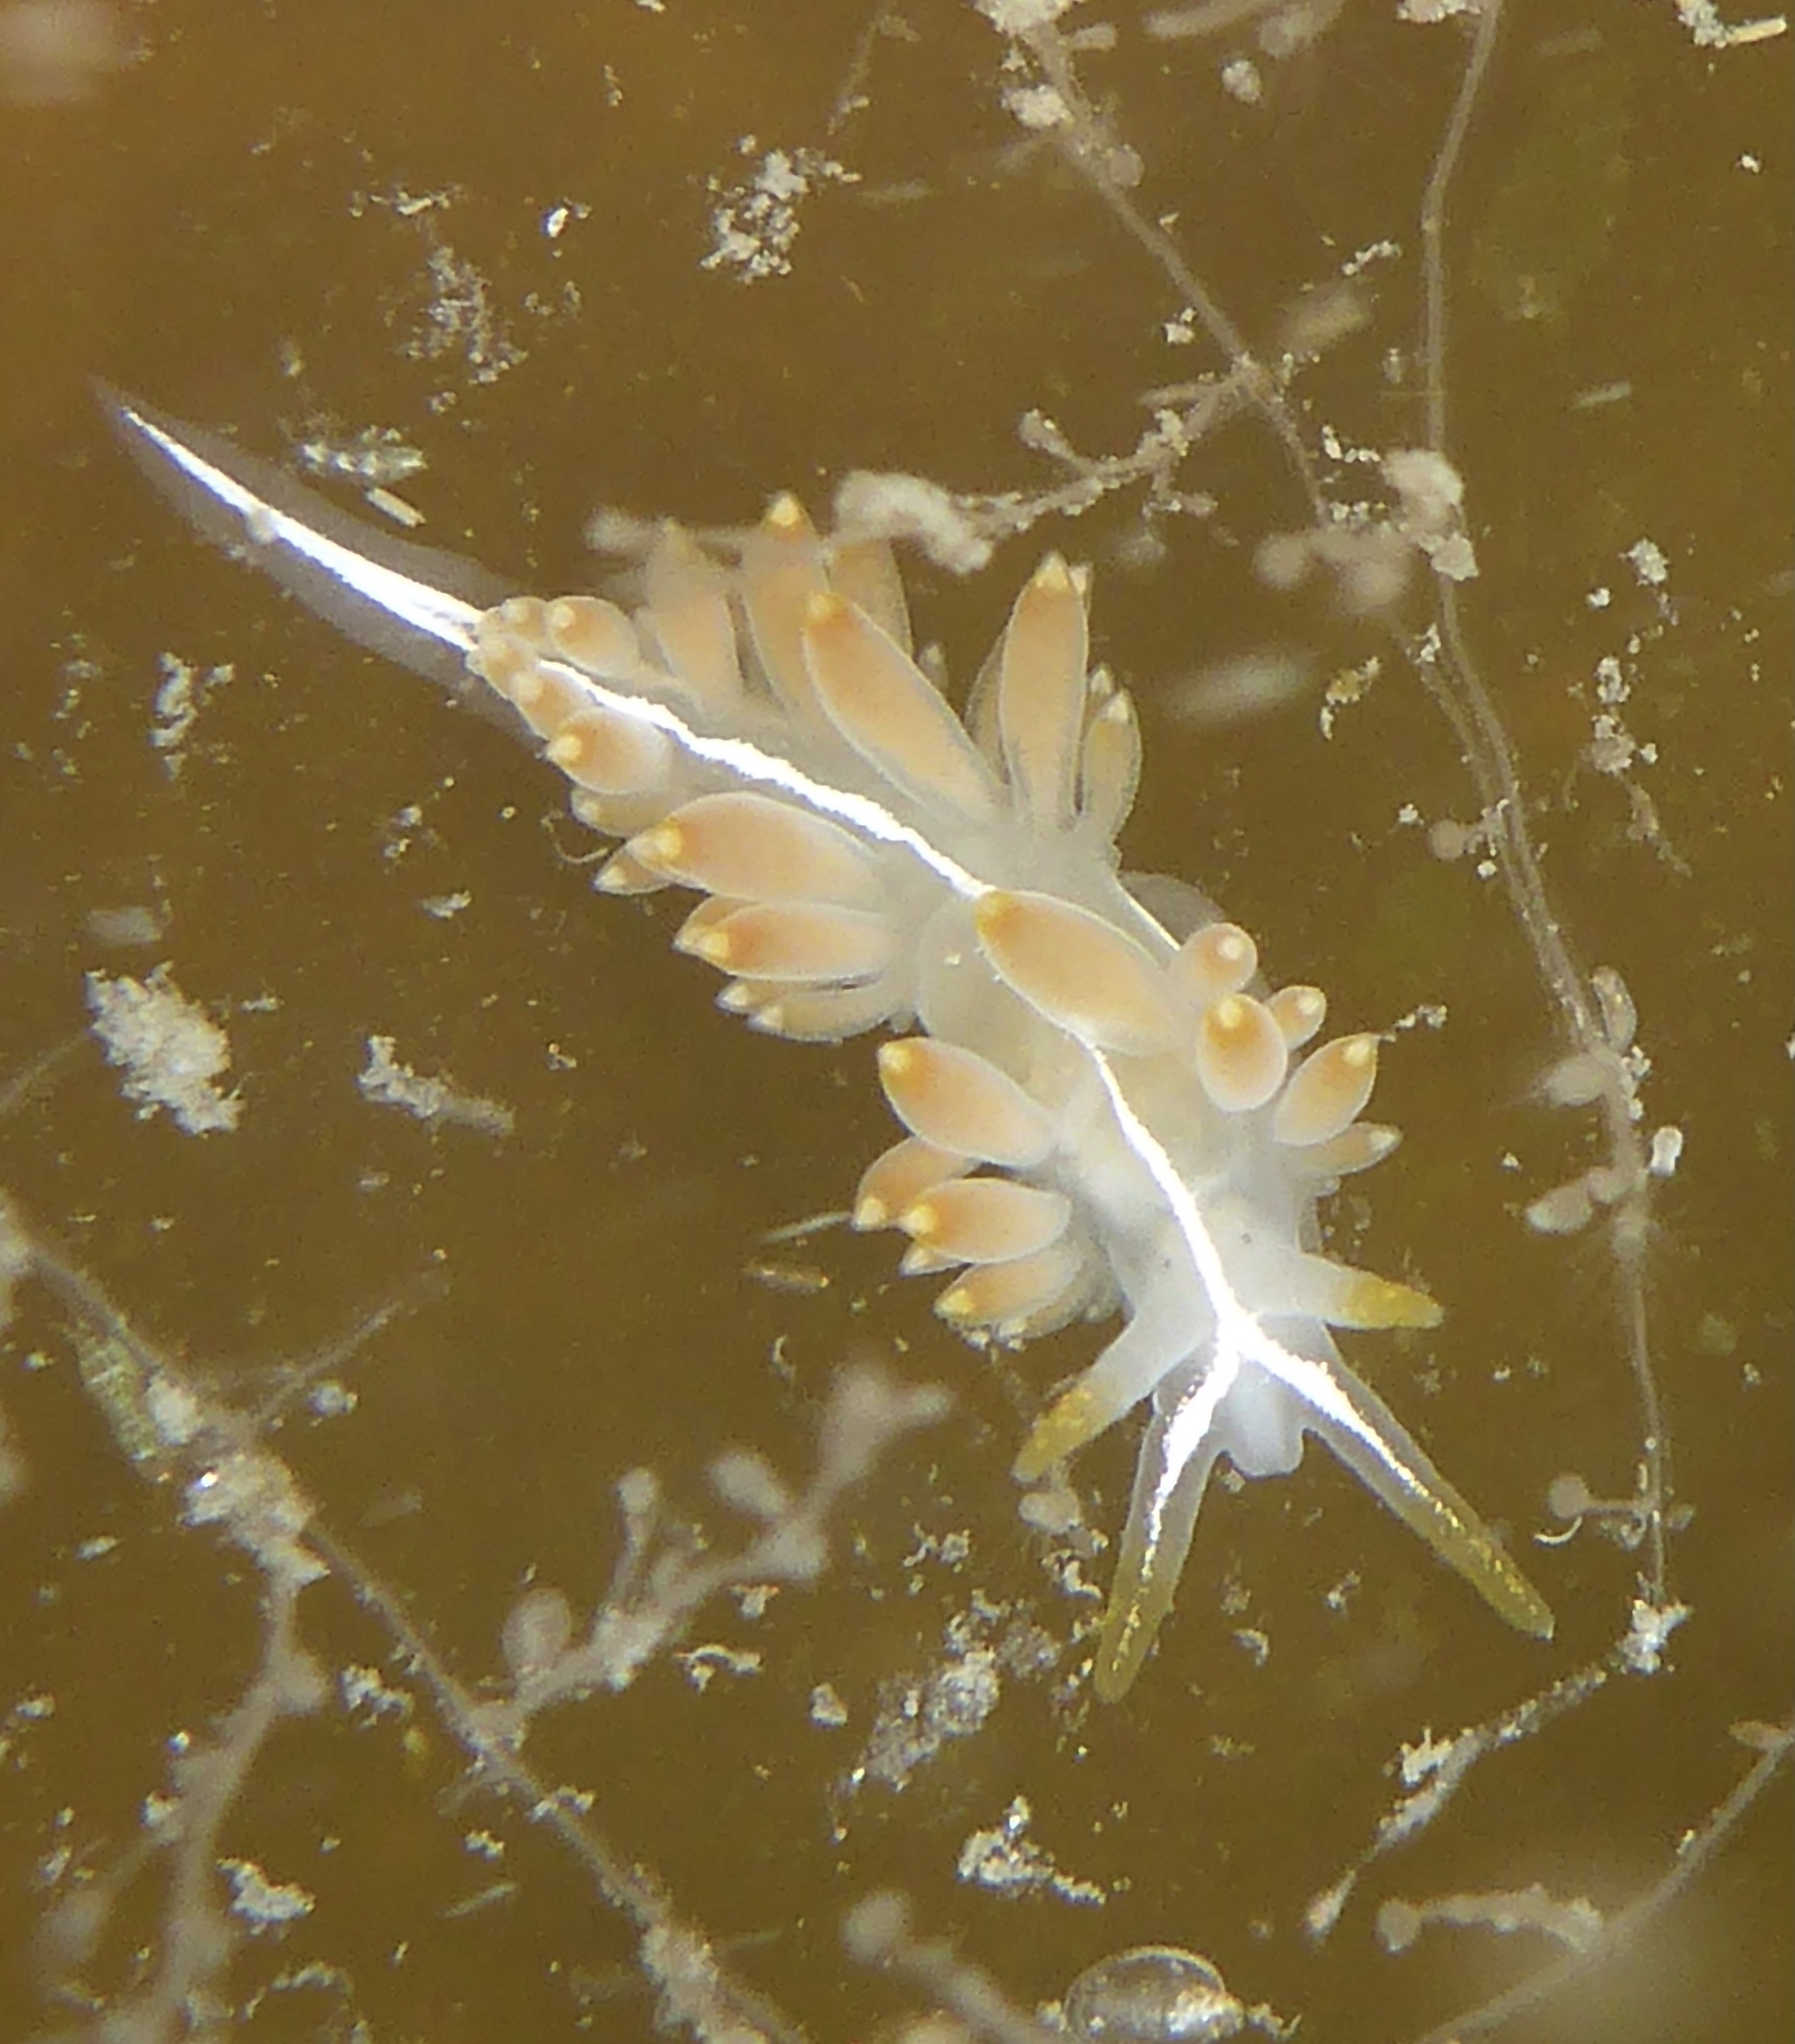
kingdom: Animalia
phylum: Mollusca
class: Gastropoda
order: Nudibranchia
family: Coryphellidae
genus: Coryphella
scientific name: Coryphella trilineata
